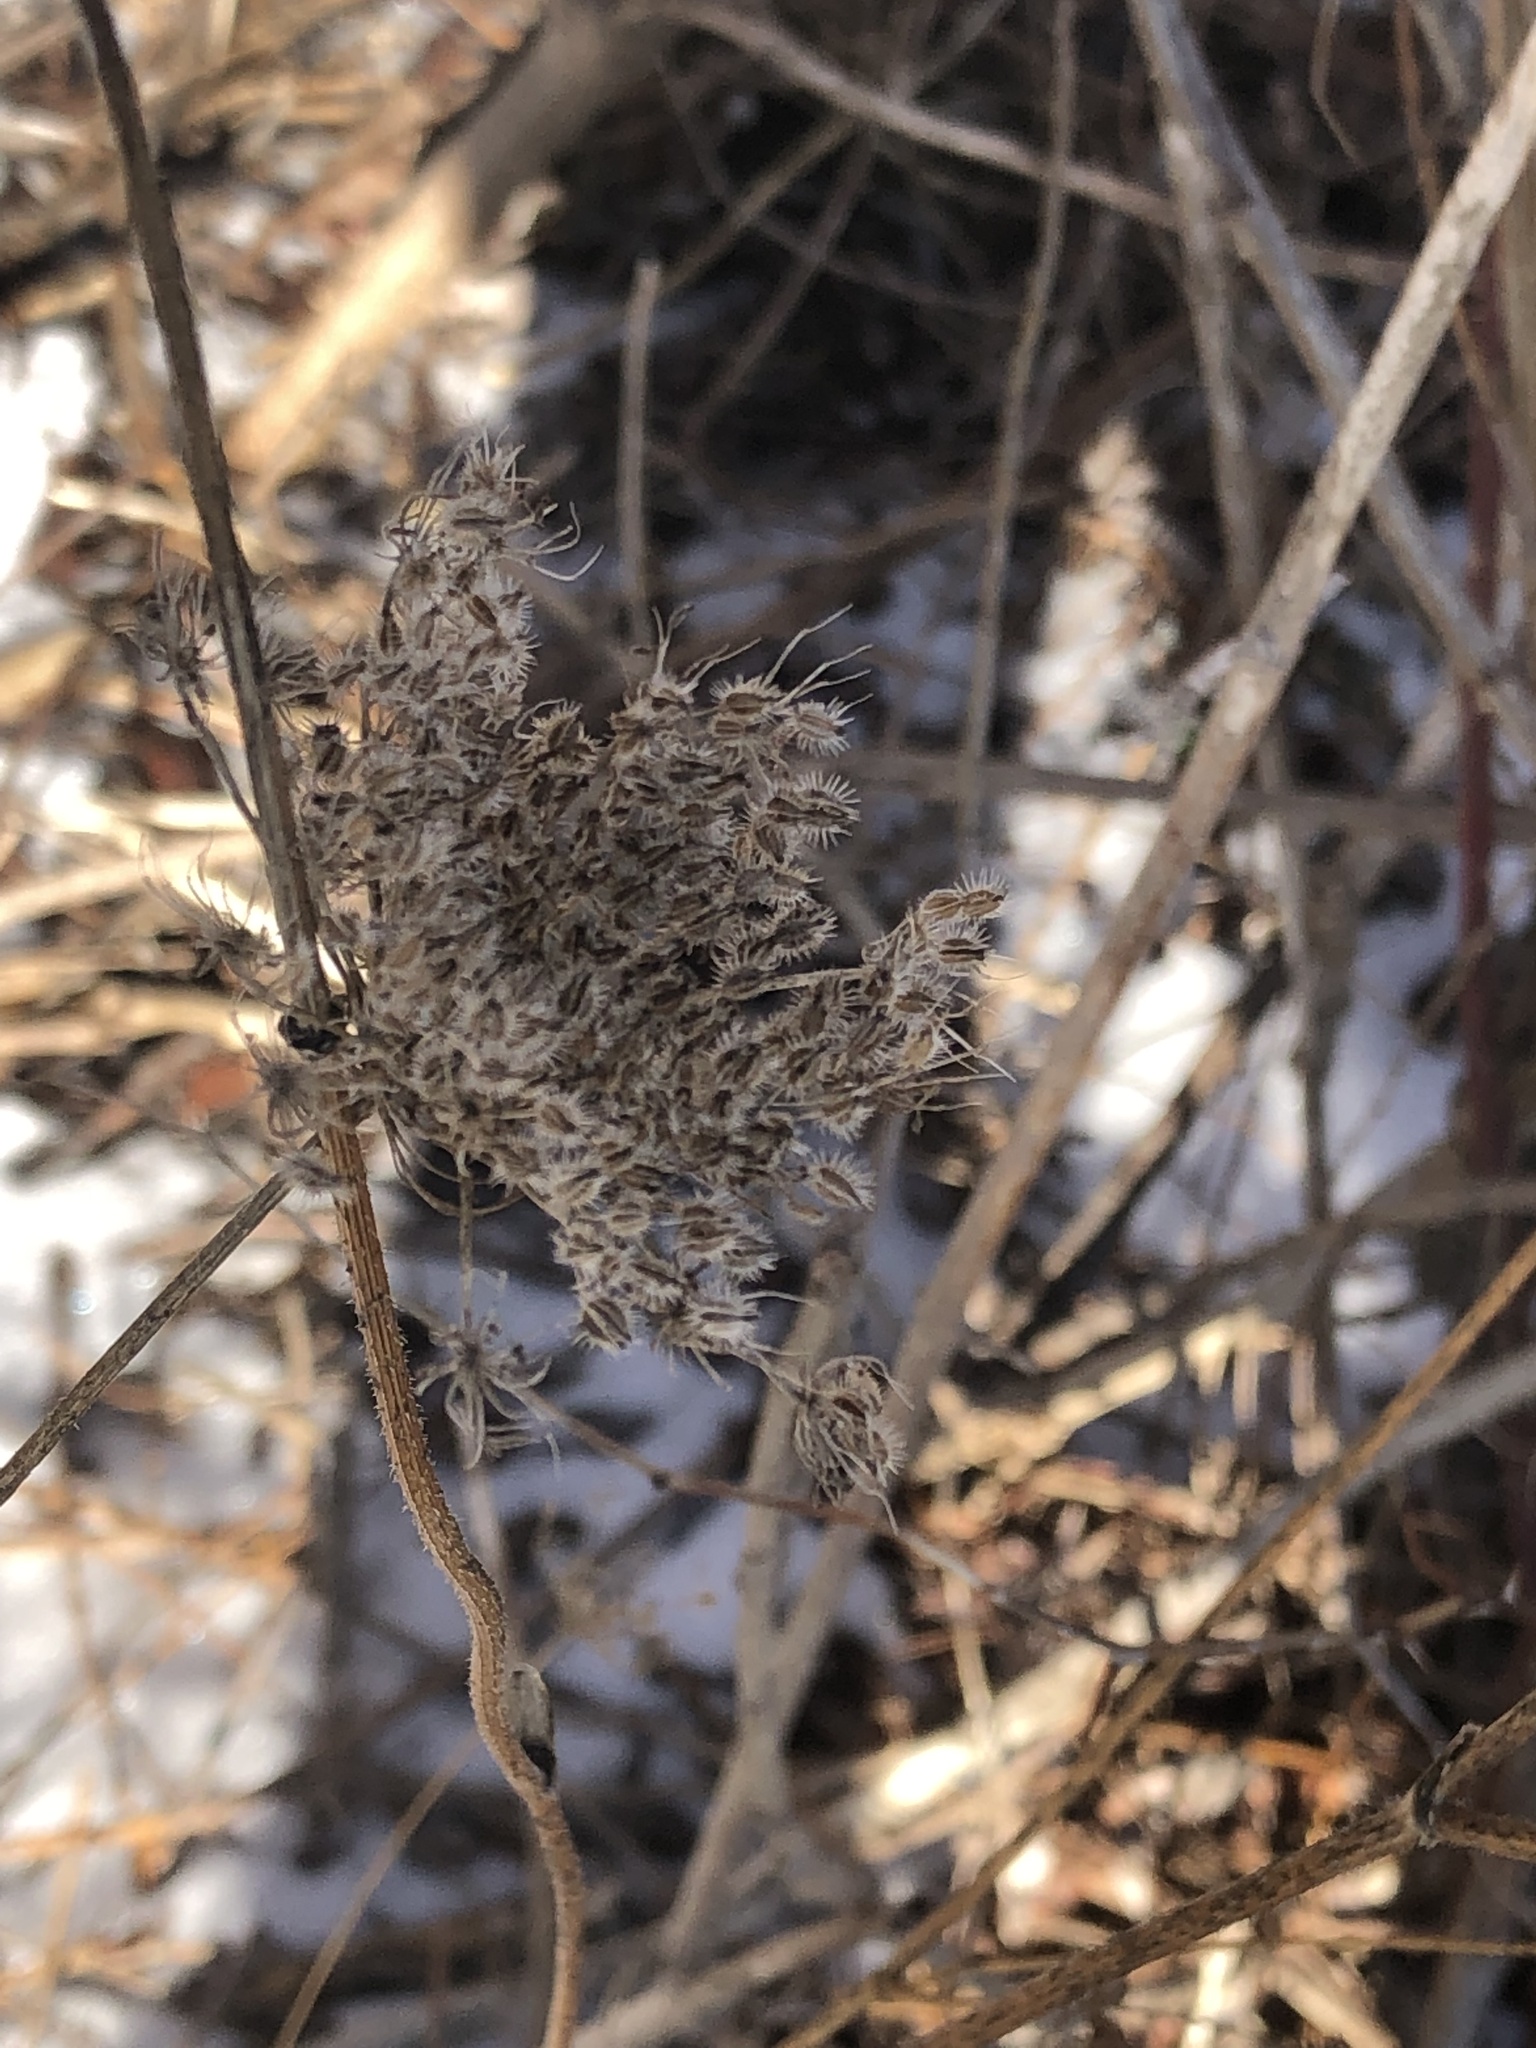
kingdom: Plantae
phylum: Tracheophyta
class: Magnoliopsida
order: Apiales
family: Apiaceae
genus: Daucus
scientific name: Daucus carota
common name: Wild carrot
